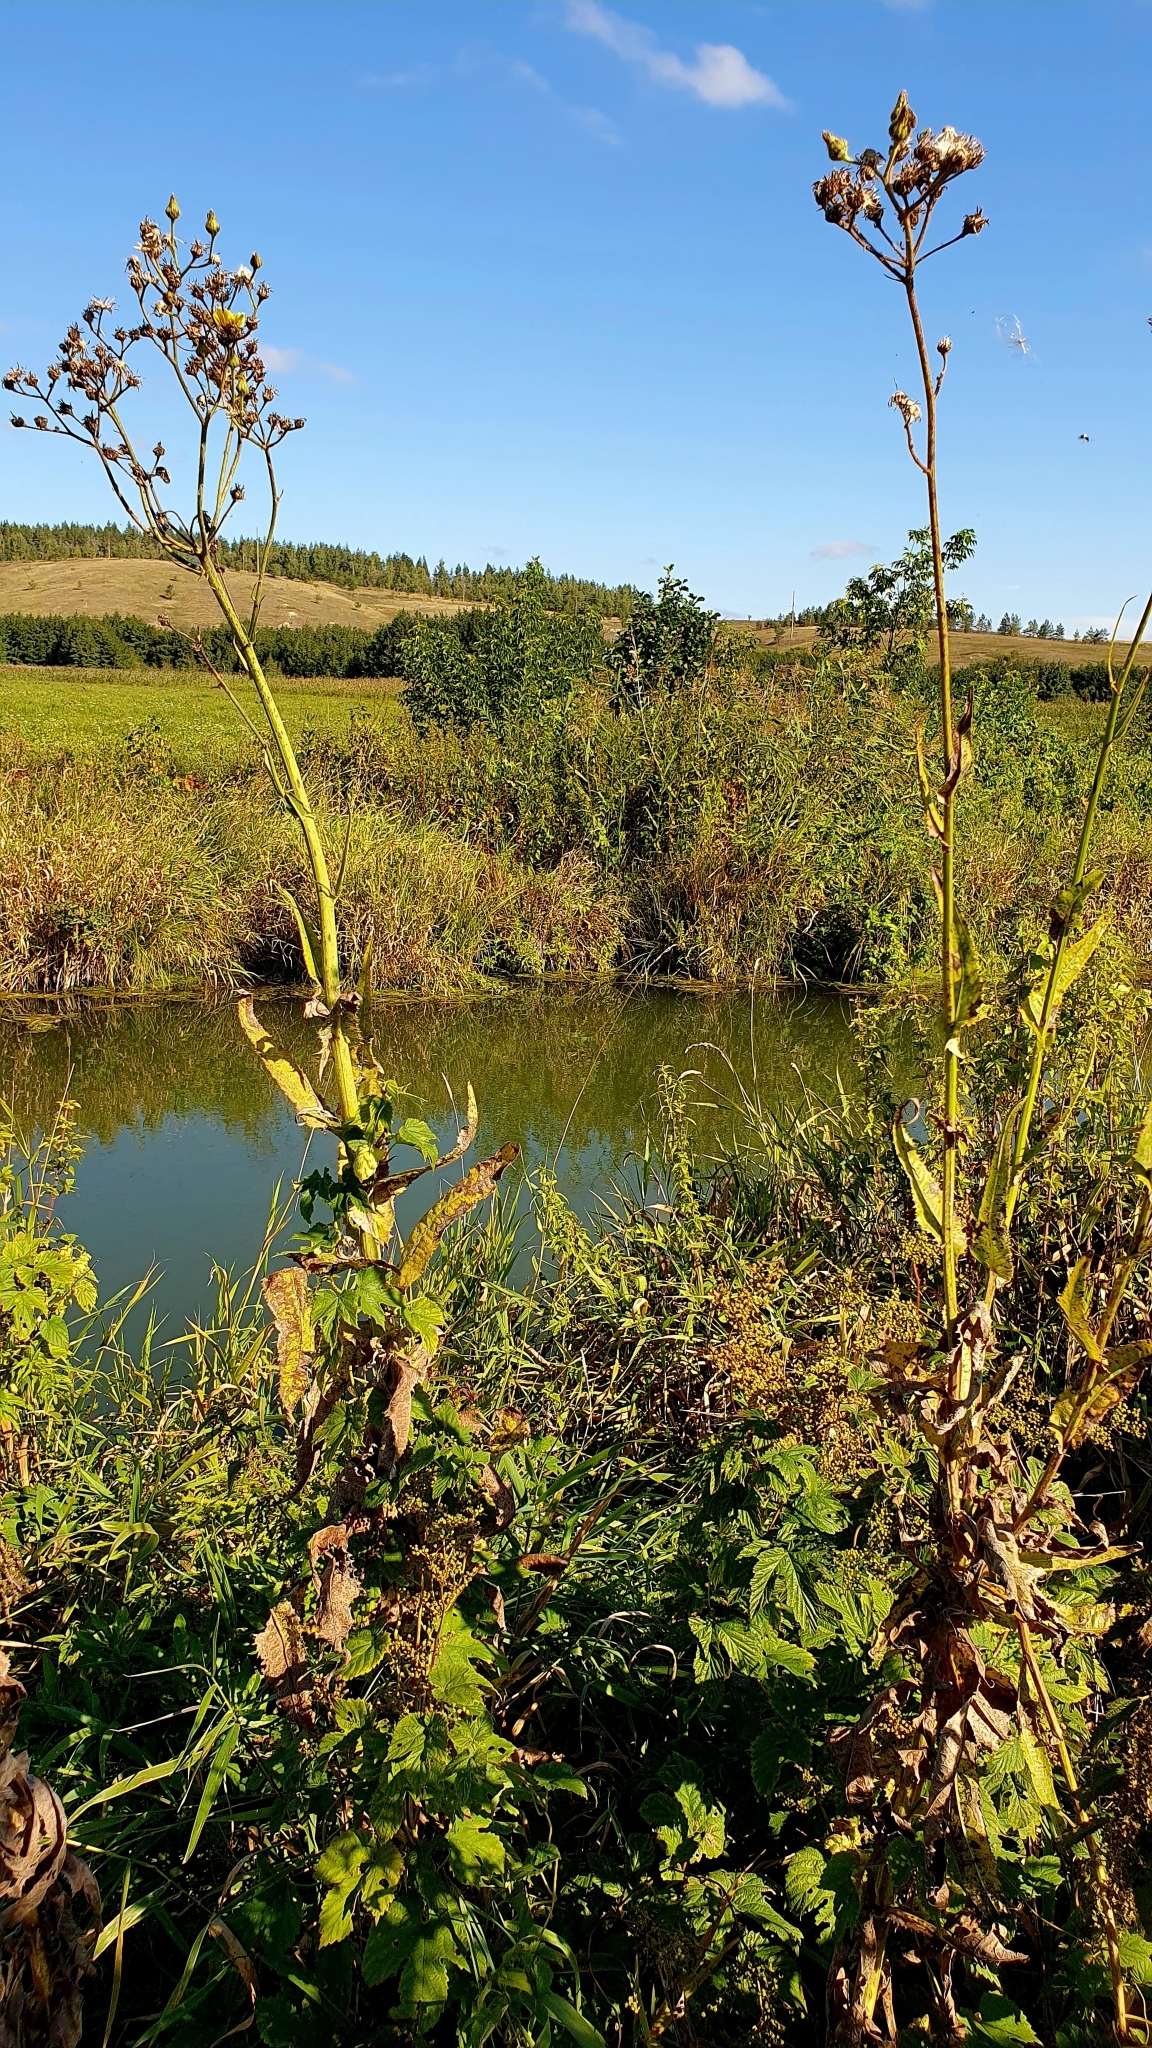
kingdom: Plantae
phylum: Tracheophyta
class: Magnoliopsida
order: Asterales
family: Asteraceae
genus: Sonchus
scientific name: Sonchus palustris
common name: Marsh sow-thistle
